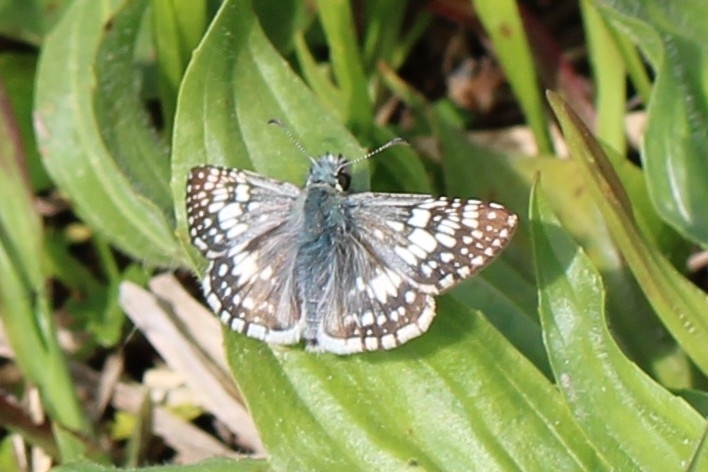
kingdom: Animalia
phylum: Arthropoda
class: Insecta
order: Lepidoptera
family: Hesperiidae
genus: Burnsius
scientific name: Burnsius communis
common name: Common checkered-skipper
